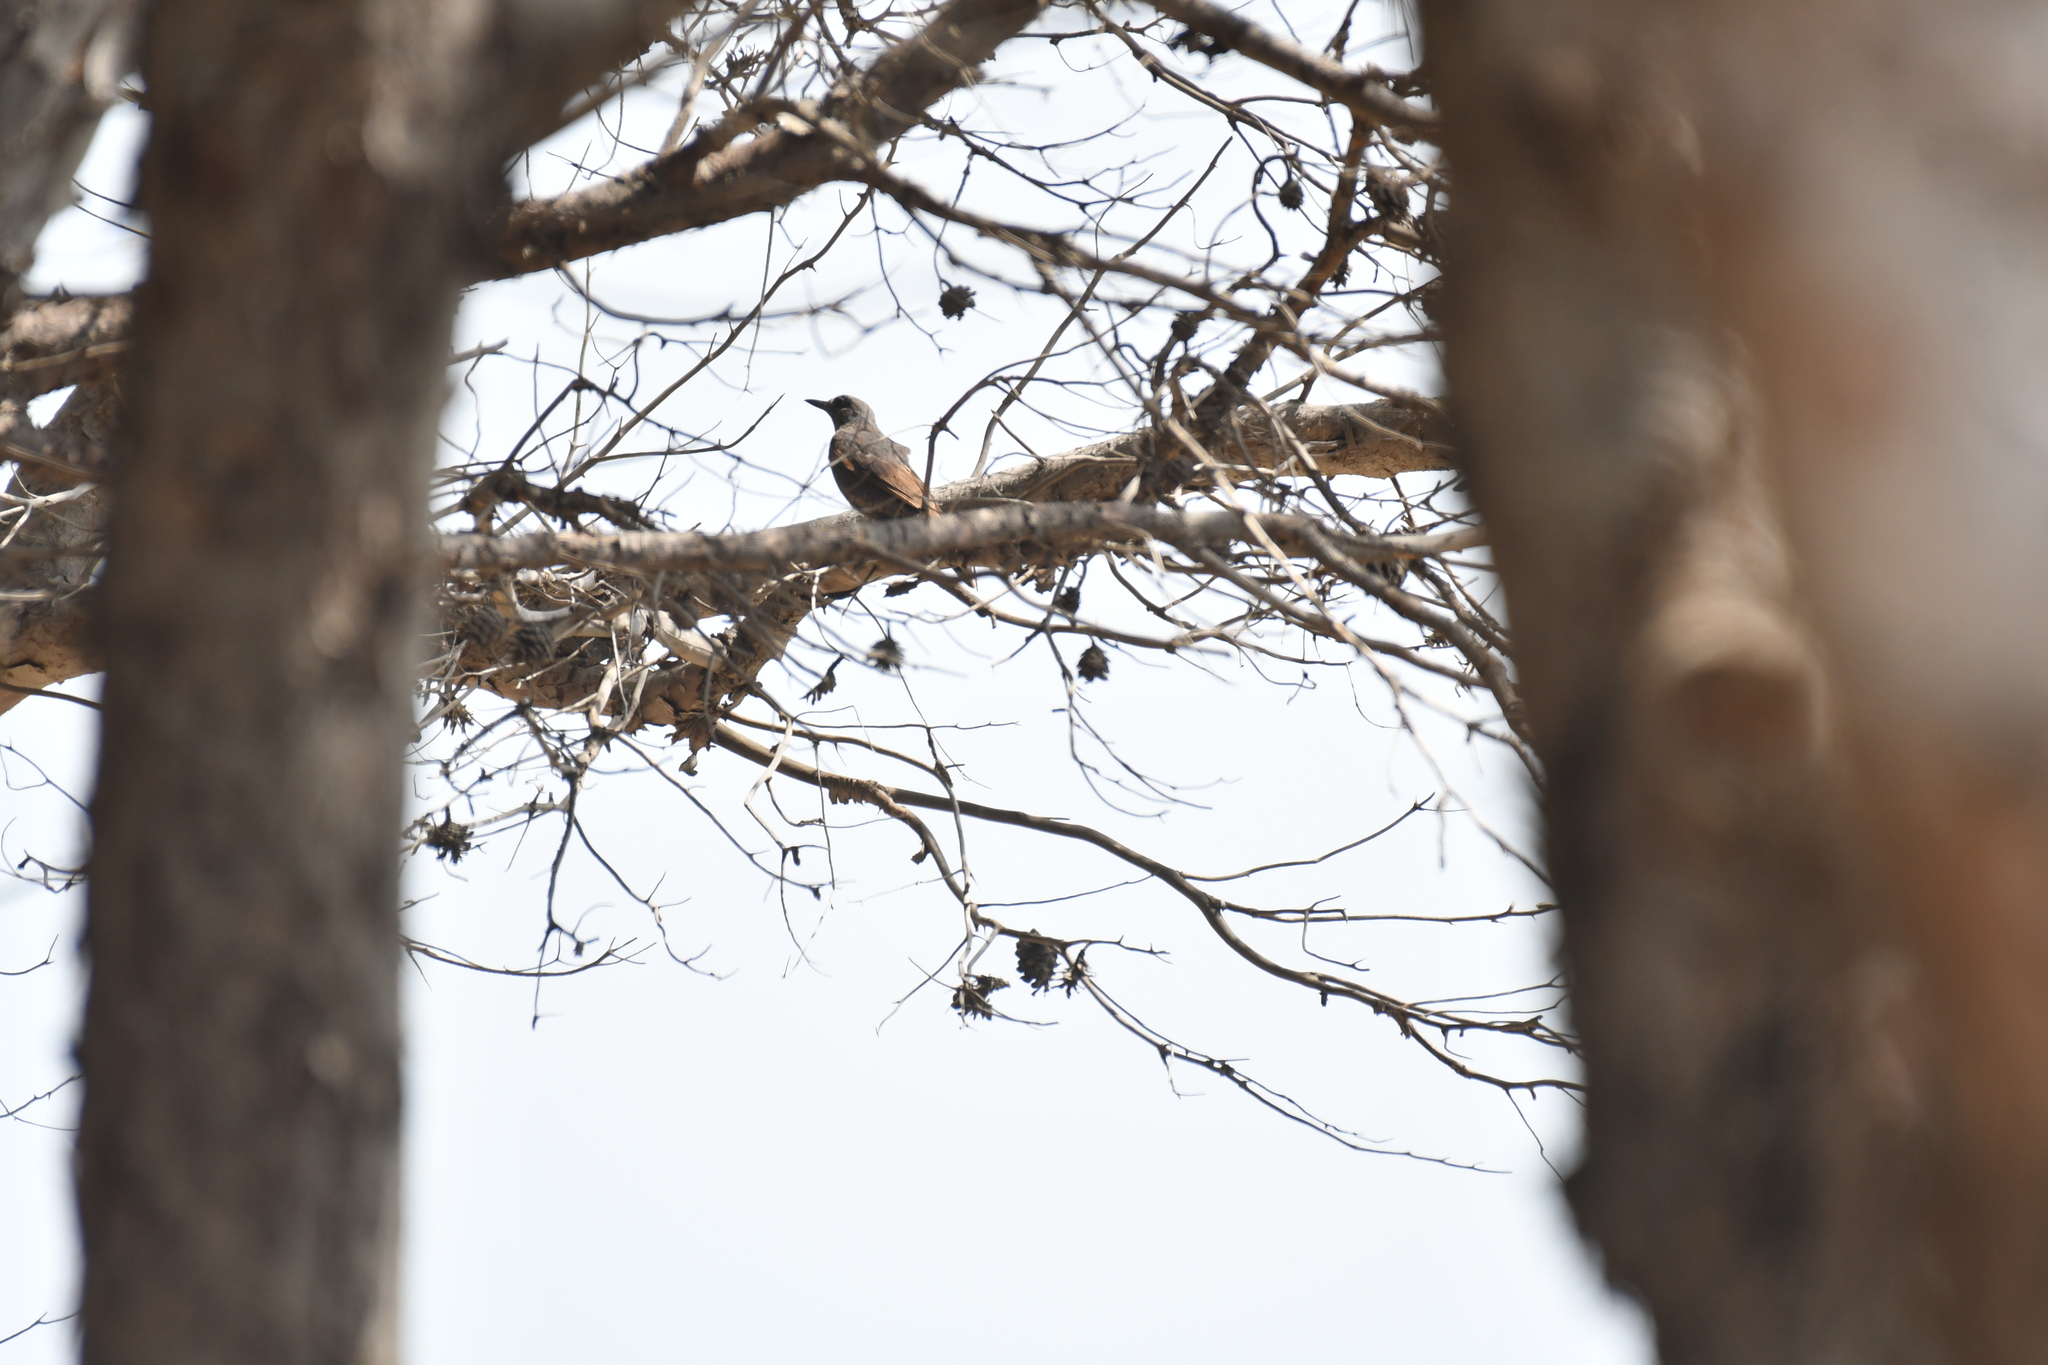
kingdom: Animalia
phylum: Chordata
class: Aves
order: Passeriformes
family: Muscicapidae
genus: Monticola
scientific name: Monticola solitarius
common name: Blue rock thrush
